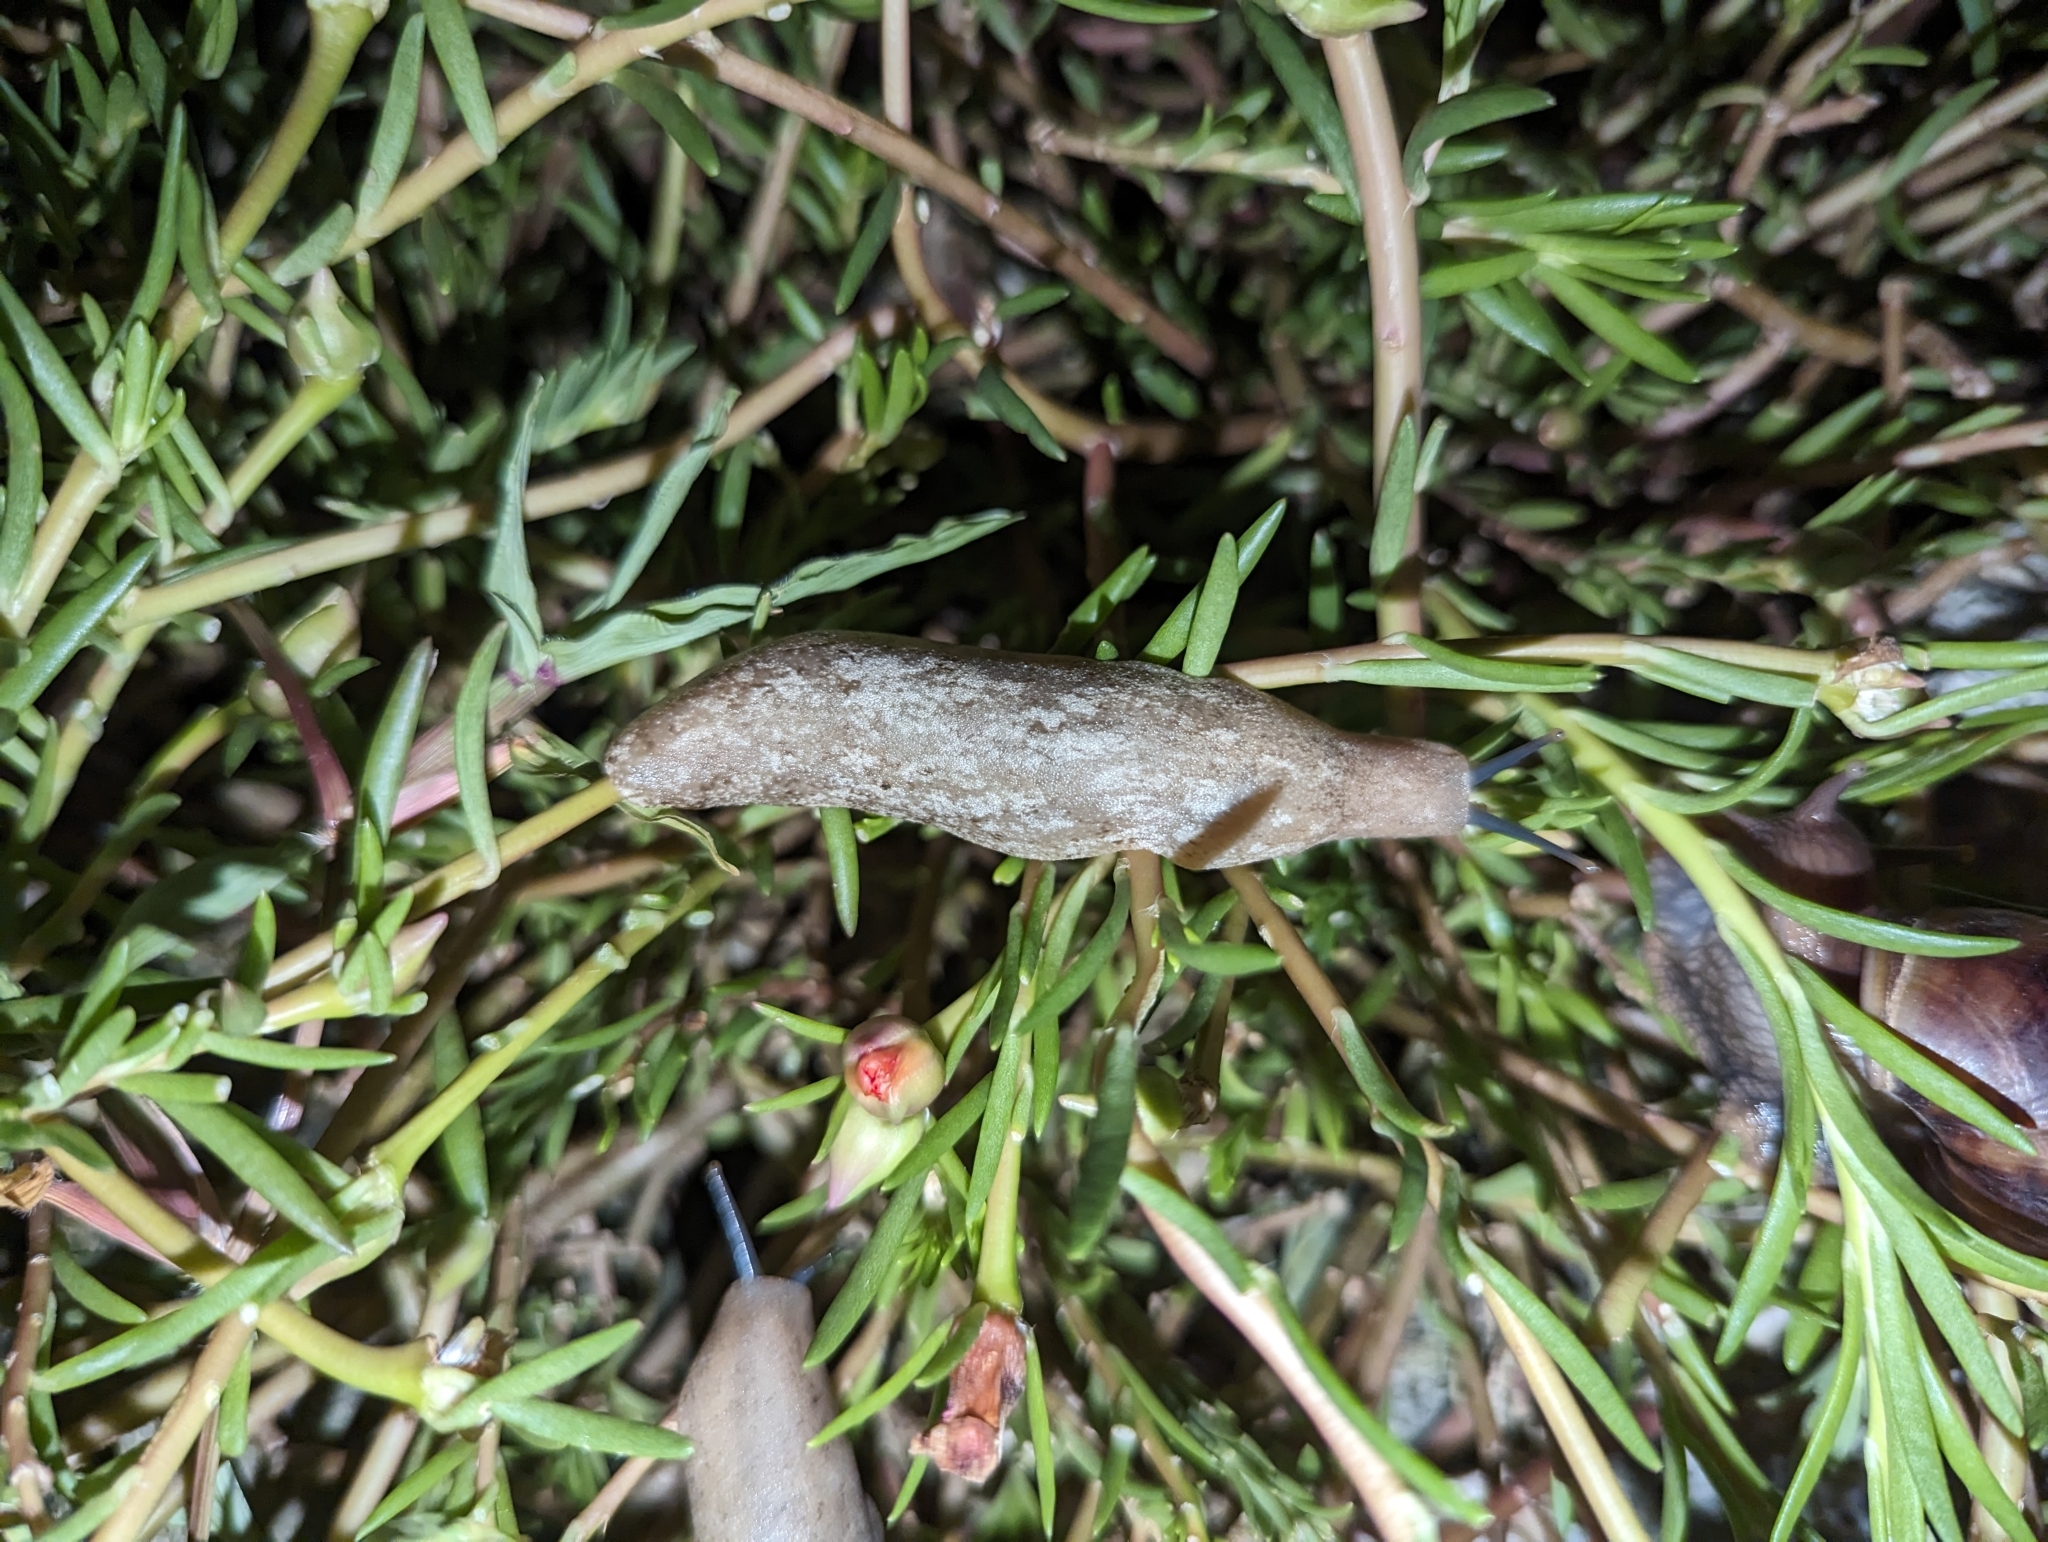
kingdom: Animalia
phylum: Mollusca
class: Gastropoda
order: Systellommatophora
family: Veronicellidae
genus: Leidyula
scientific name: Leidyula sloanii
